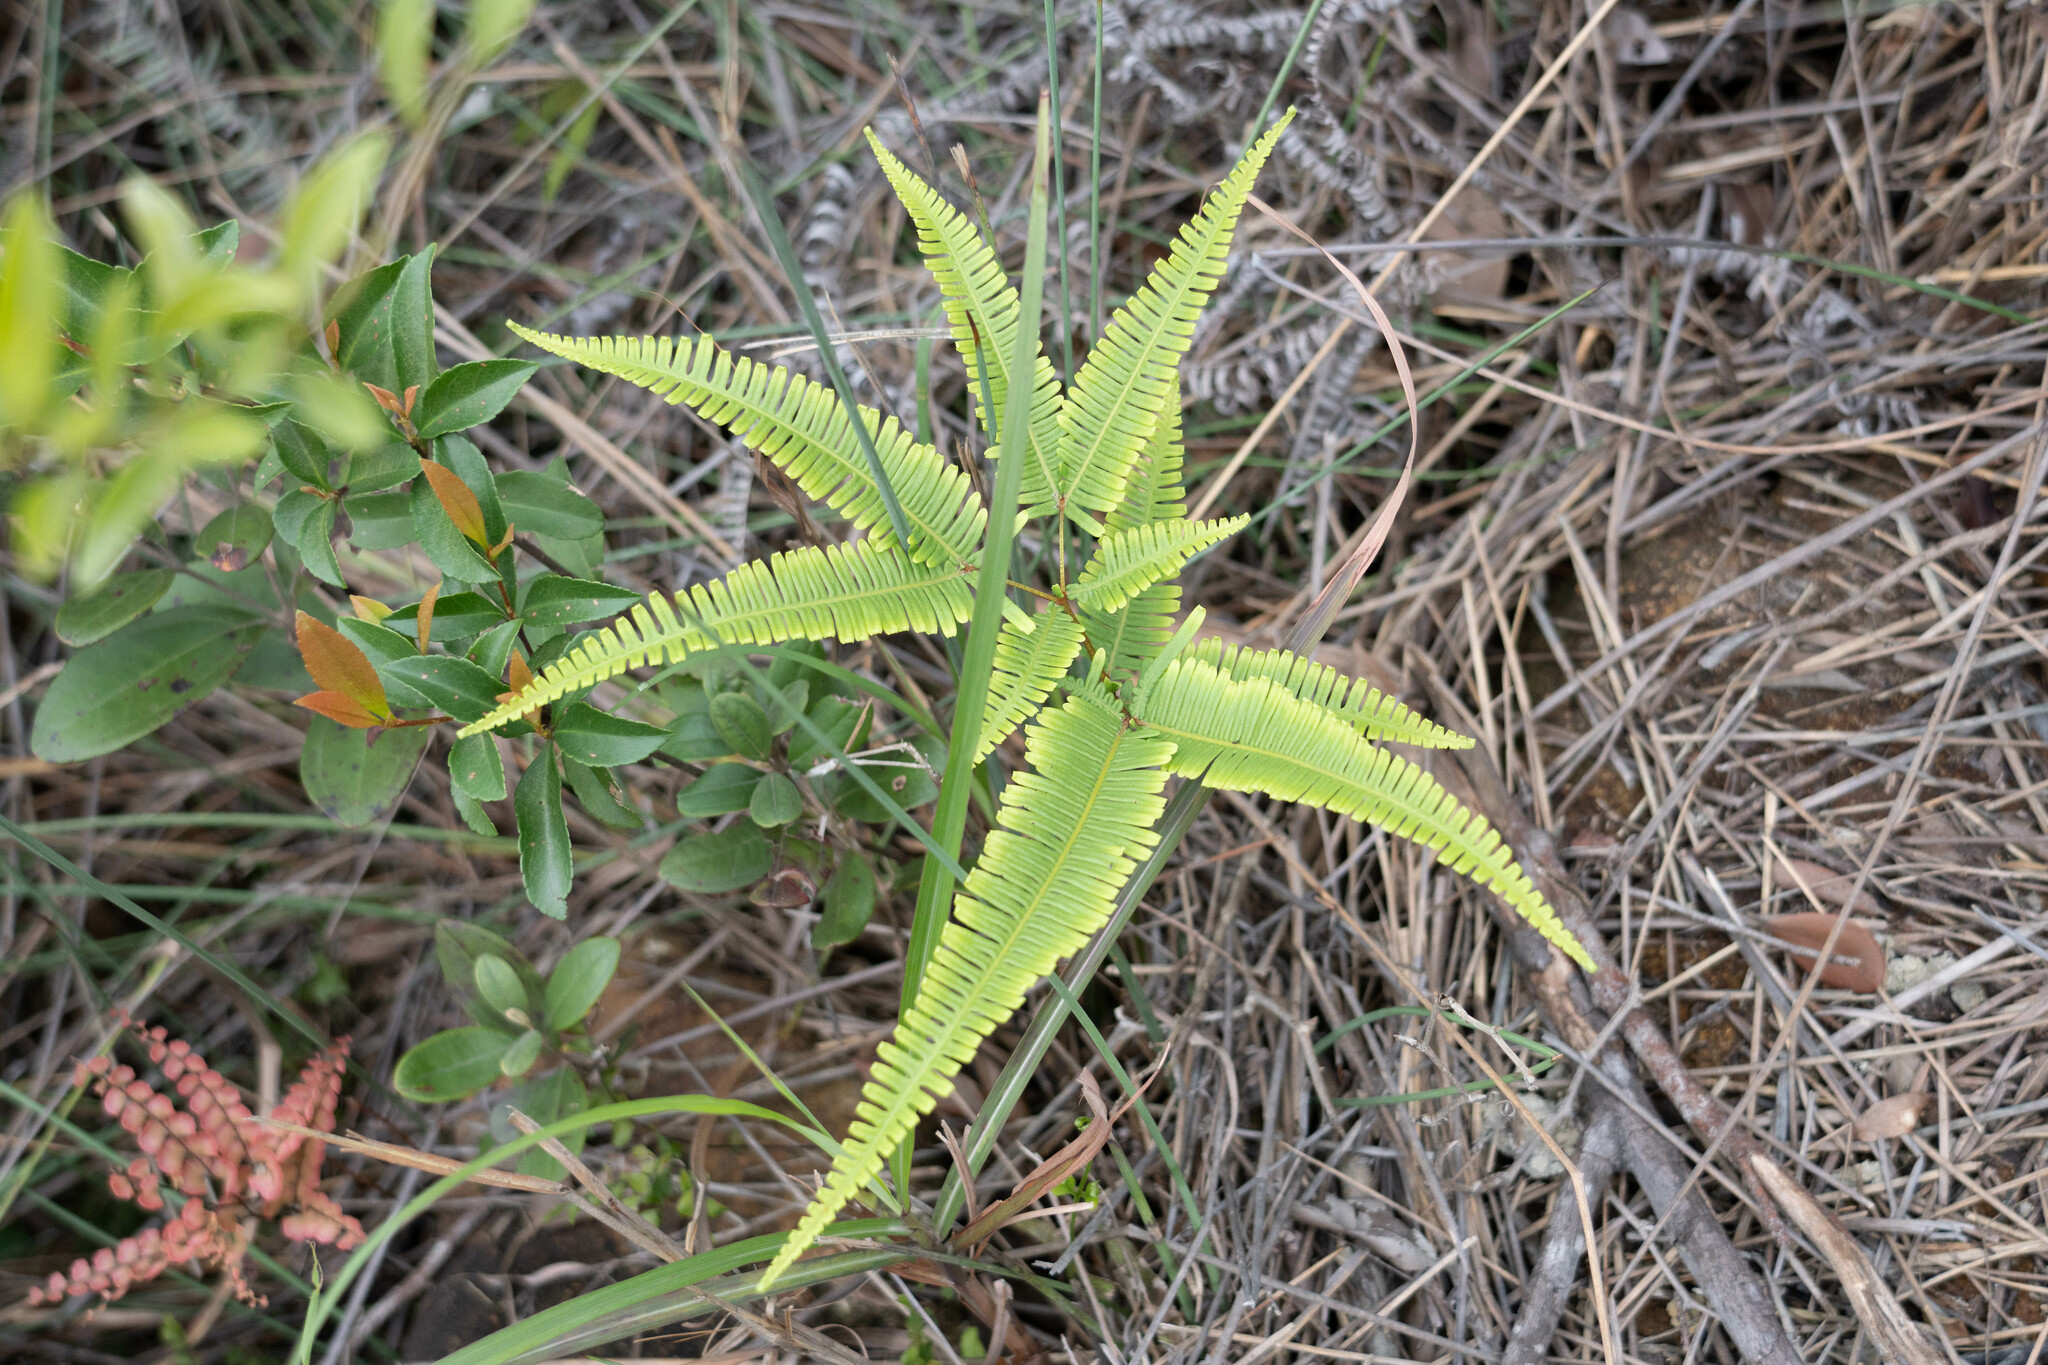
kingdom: Plantae
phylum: Tracheophyta
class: Polypodiopsida
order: Gleicheniales
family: Gleicheniaceae
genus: Dicranopteris
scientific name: Dicranopteris linearis
